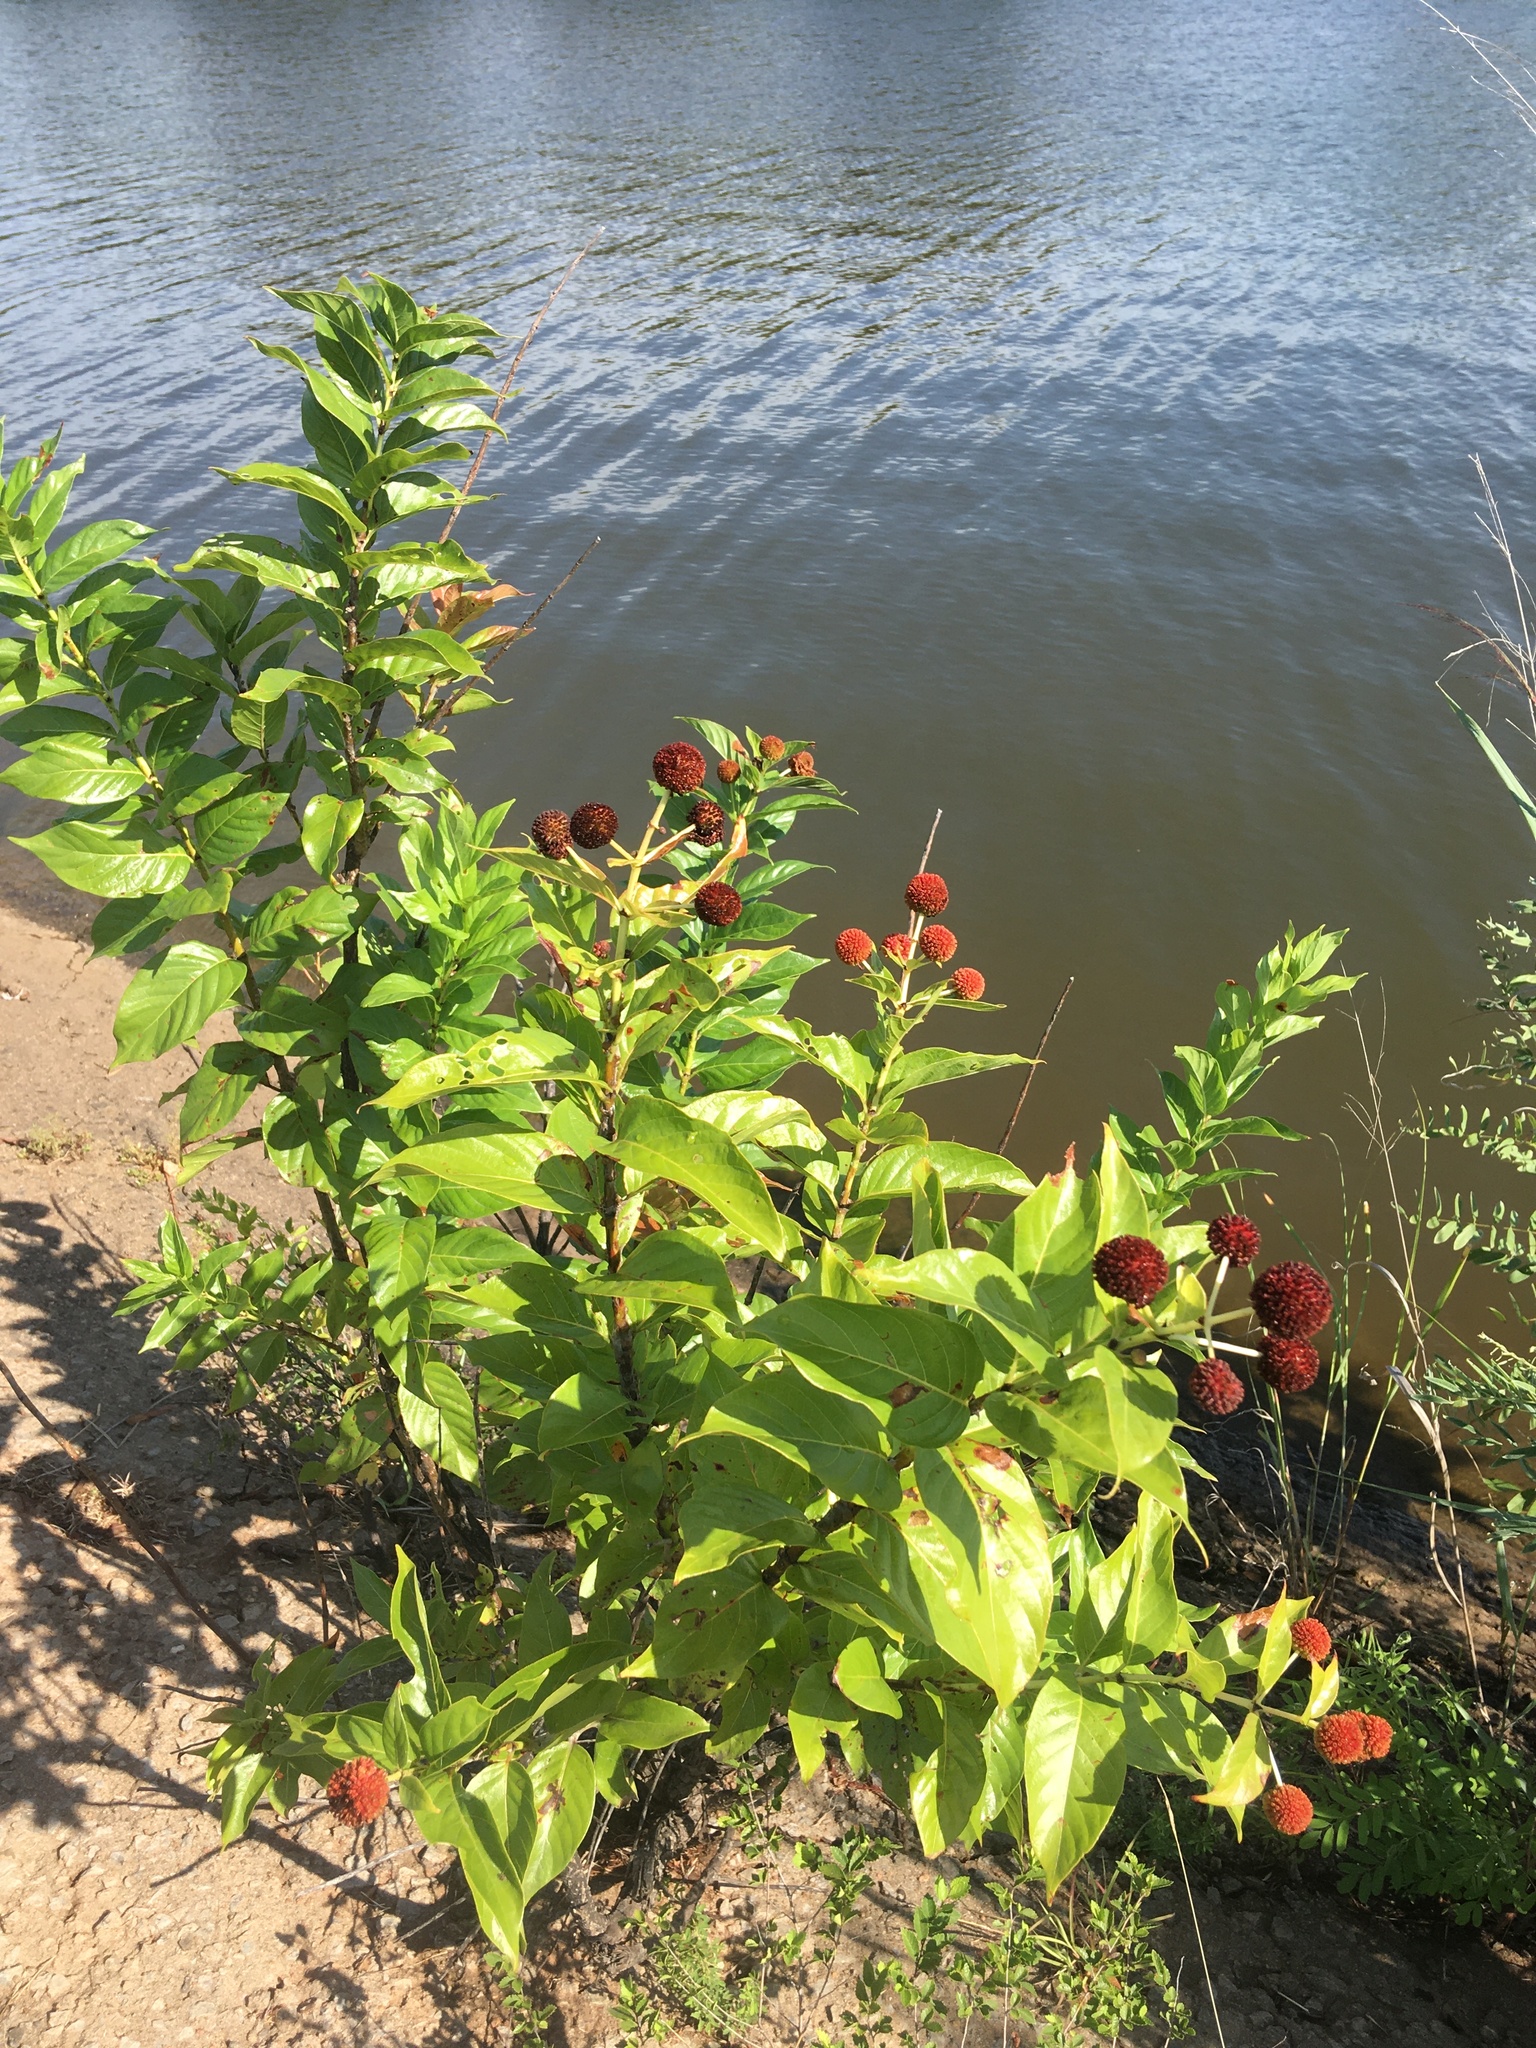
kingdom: Plantae
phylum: Tracheophyta
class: Magnoliopsida
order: Gentianales
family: Rubiaceae
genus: Cephalanthus
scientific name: Cephalanthus occidentalis
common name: Button-willow
